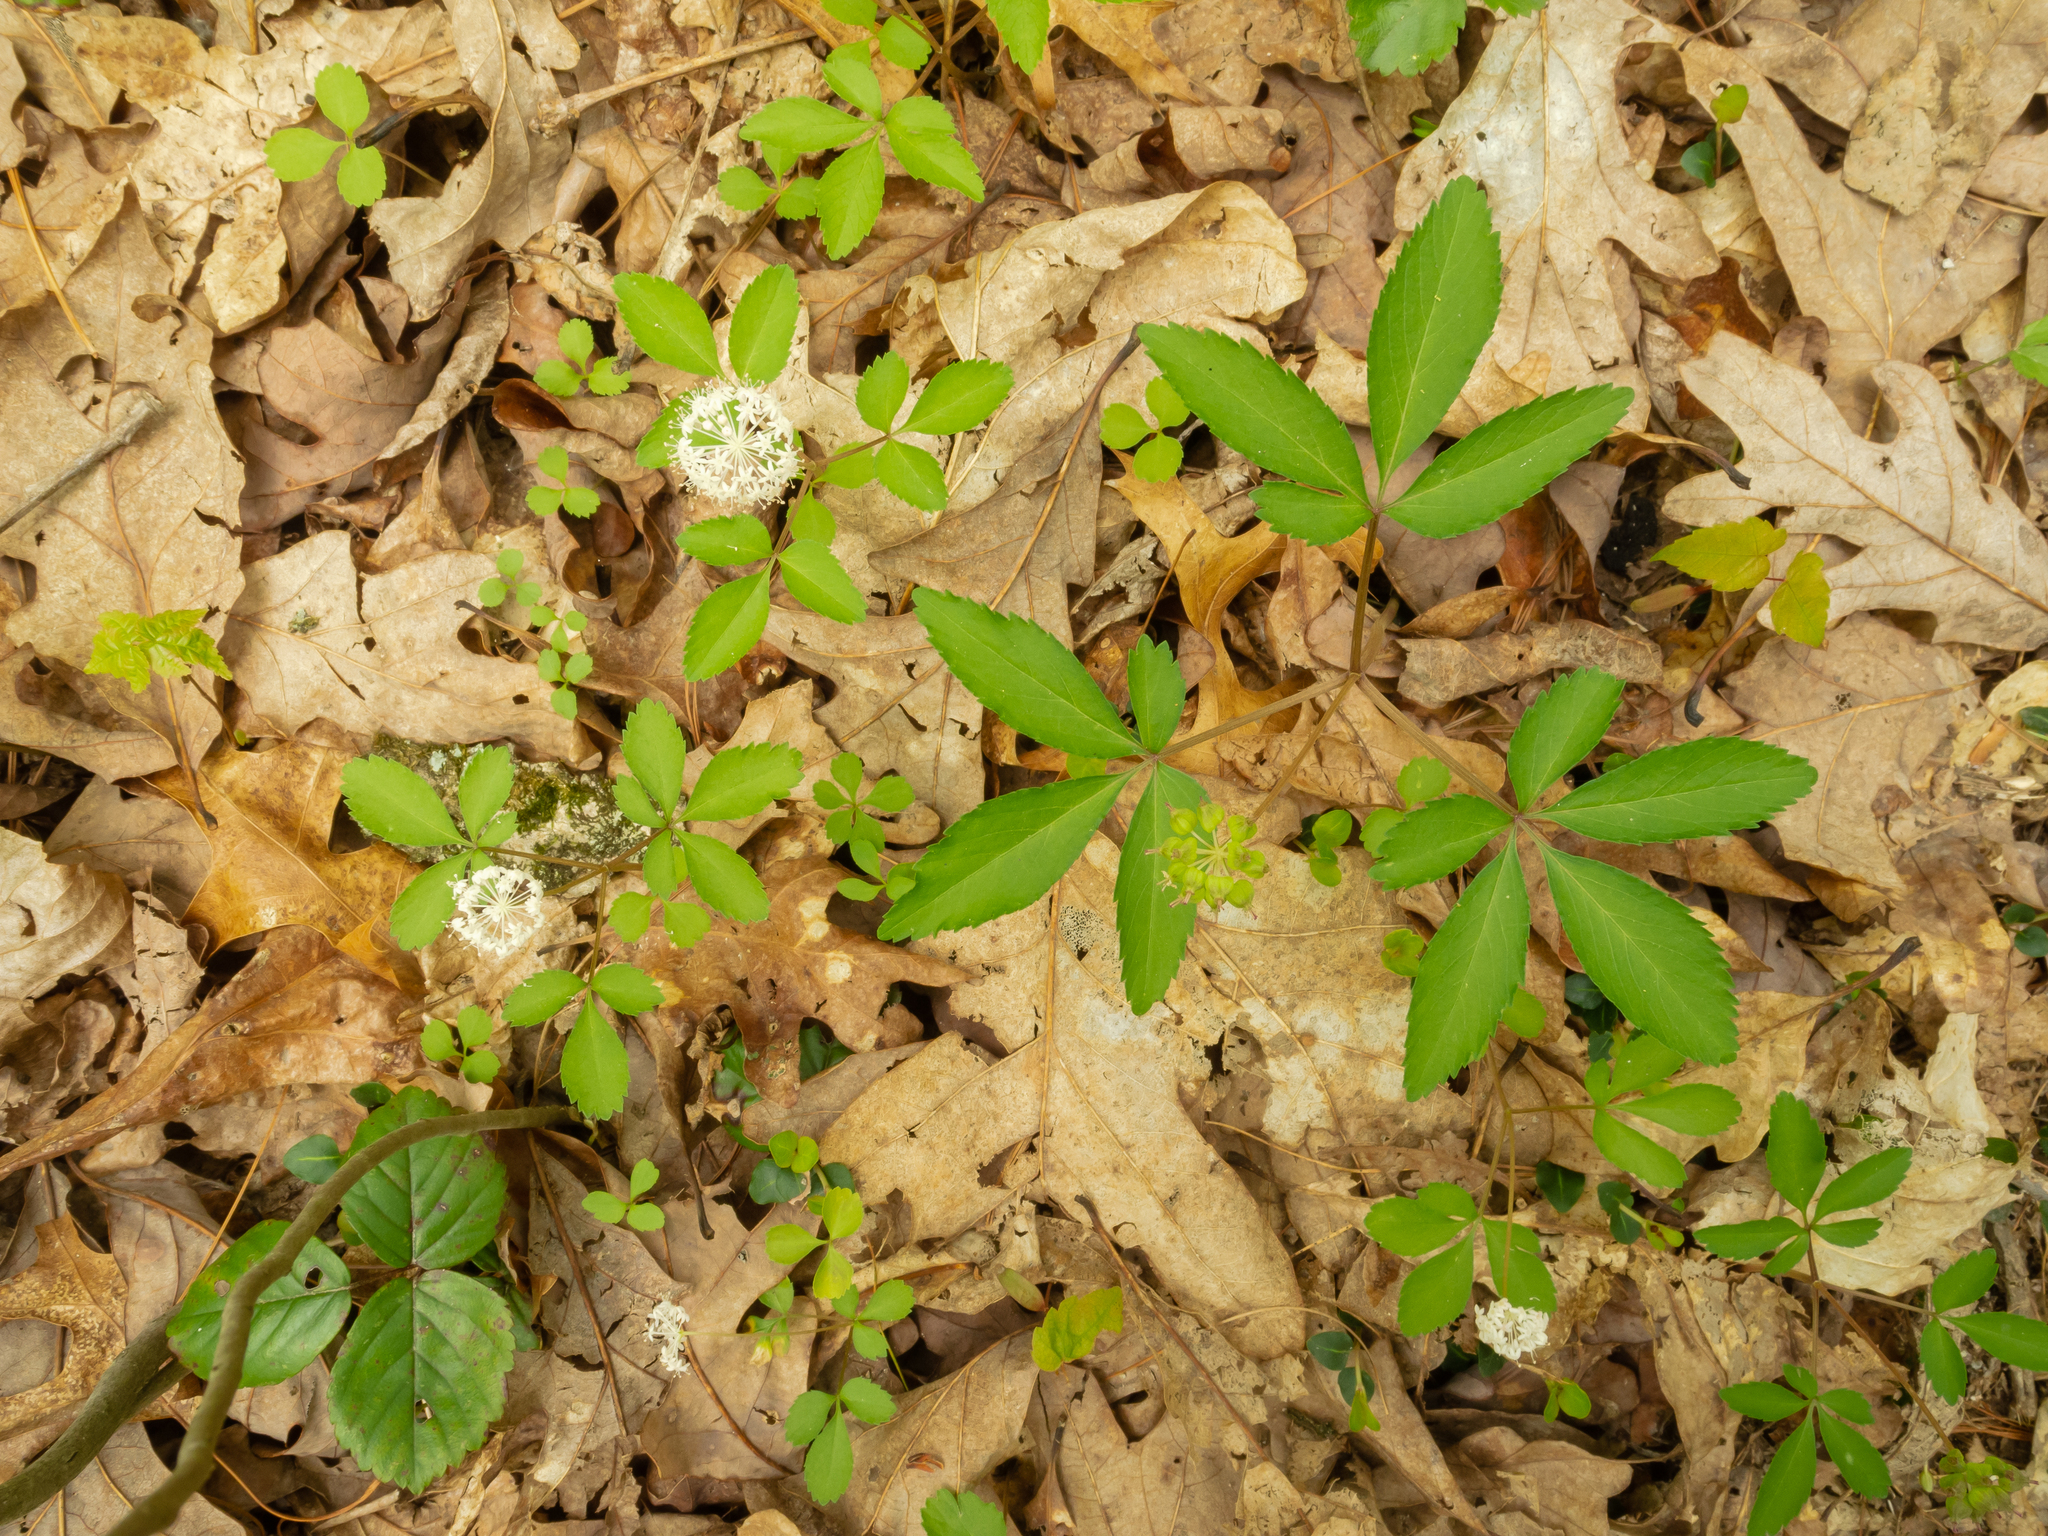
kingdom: Plantae
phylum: Tracheophyta
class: Magnoliopsida
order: Apiales
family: Araliaceae
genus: Panax
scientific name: Panax trifolius
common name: Dwarf ginseng
